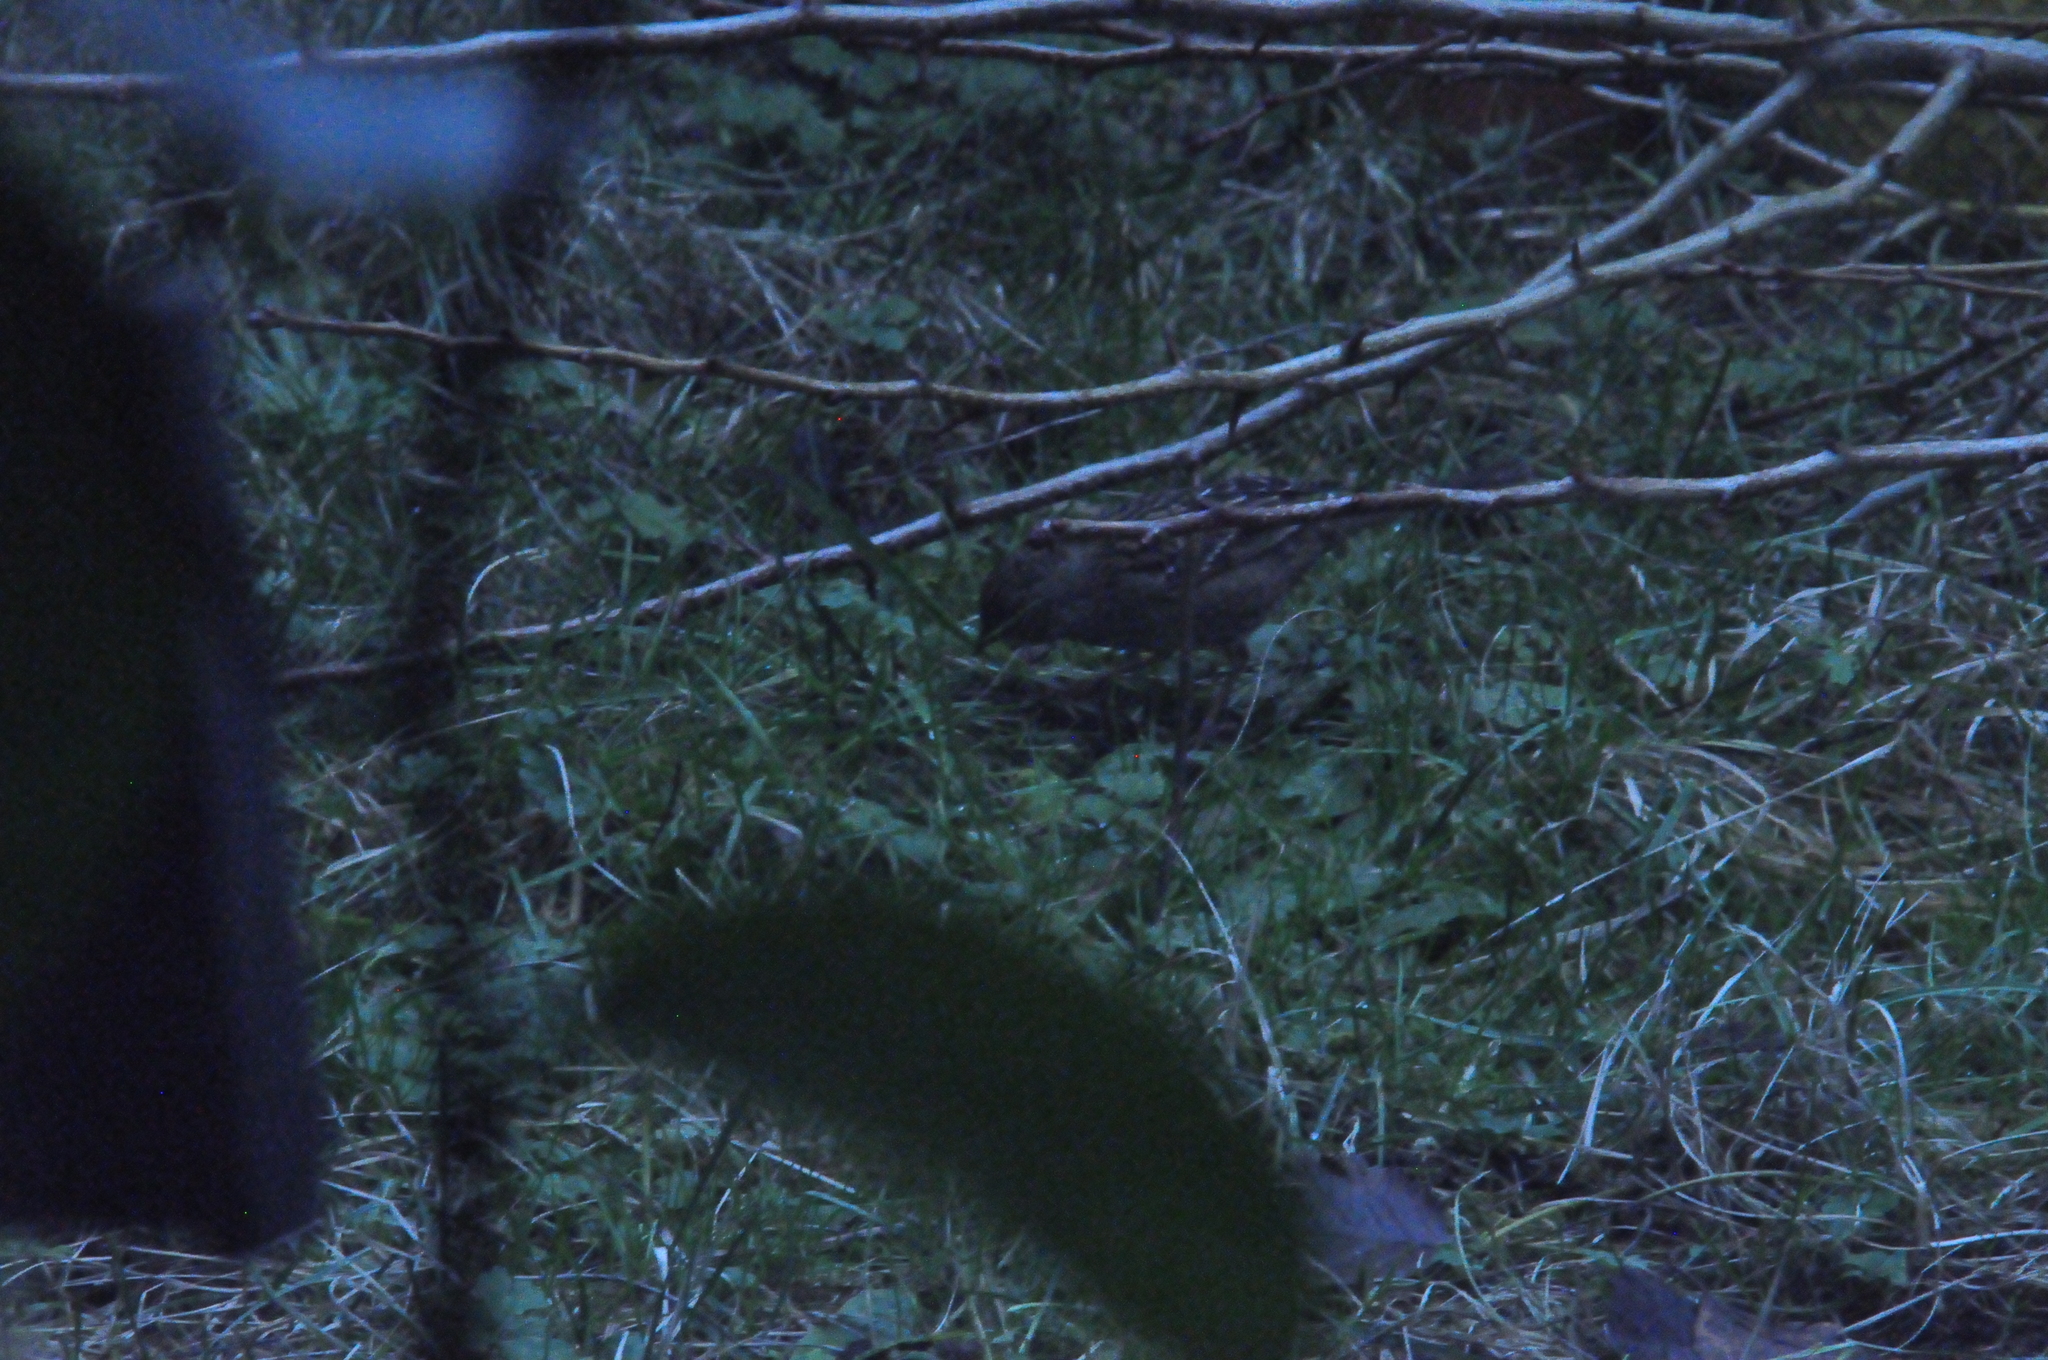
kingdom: Animalia
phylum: Chordata
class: Aves
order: Passeriformes
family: Passerellidae
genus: Zonotrichia
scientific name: Zonotrichia atricapilla
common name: Golden-crowned sparrow
